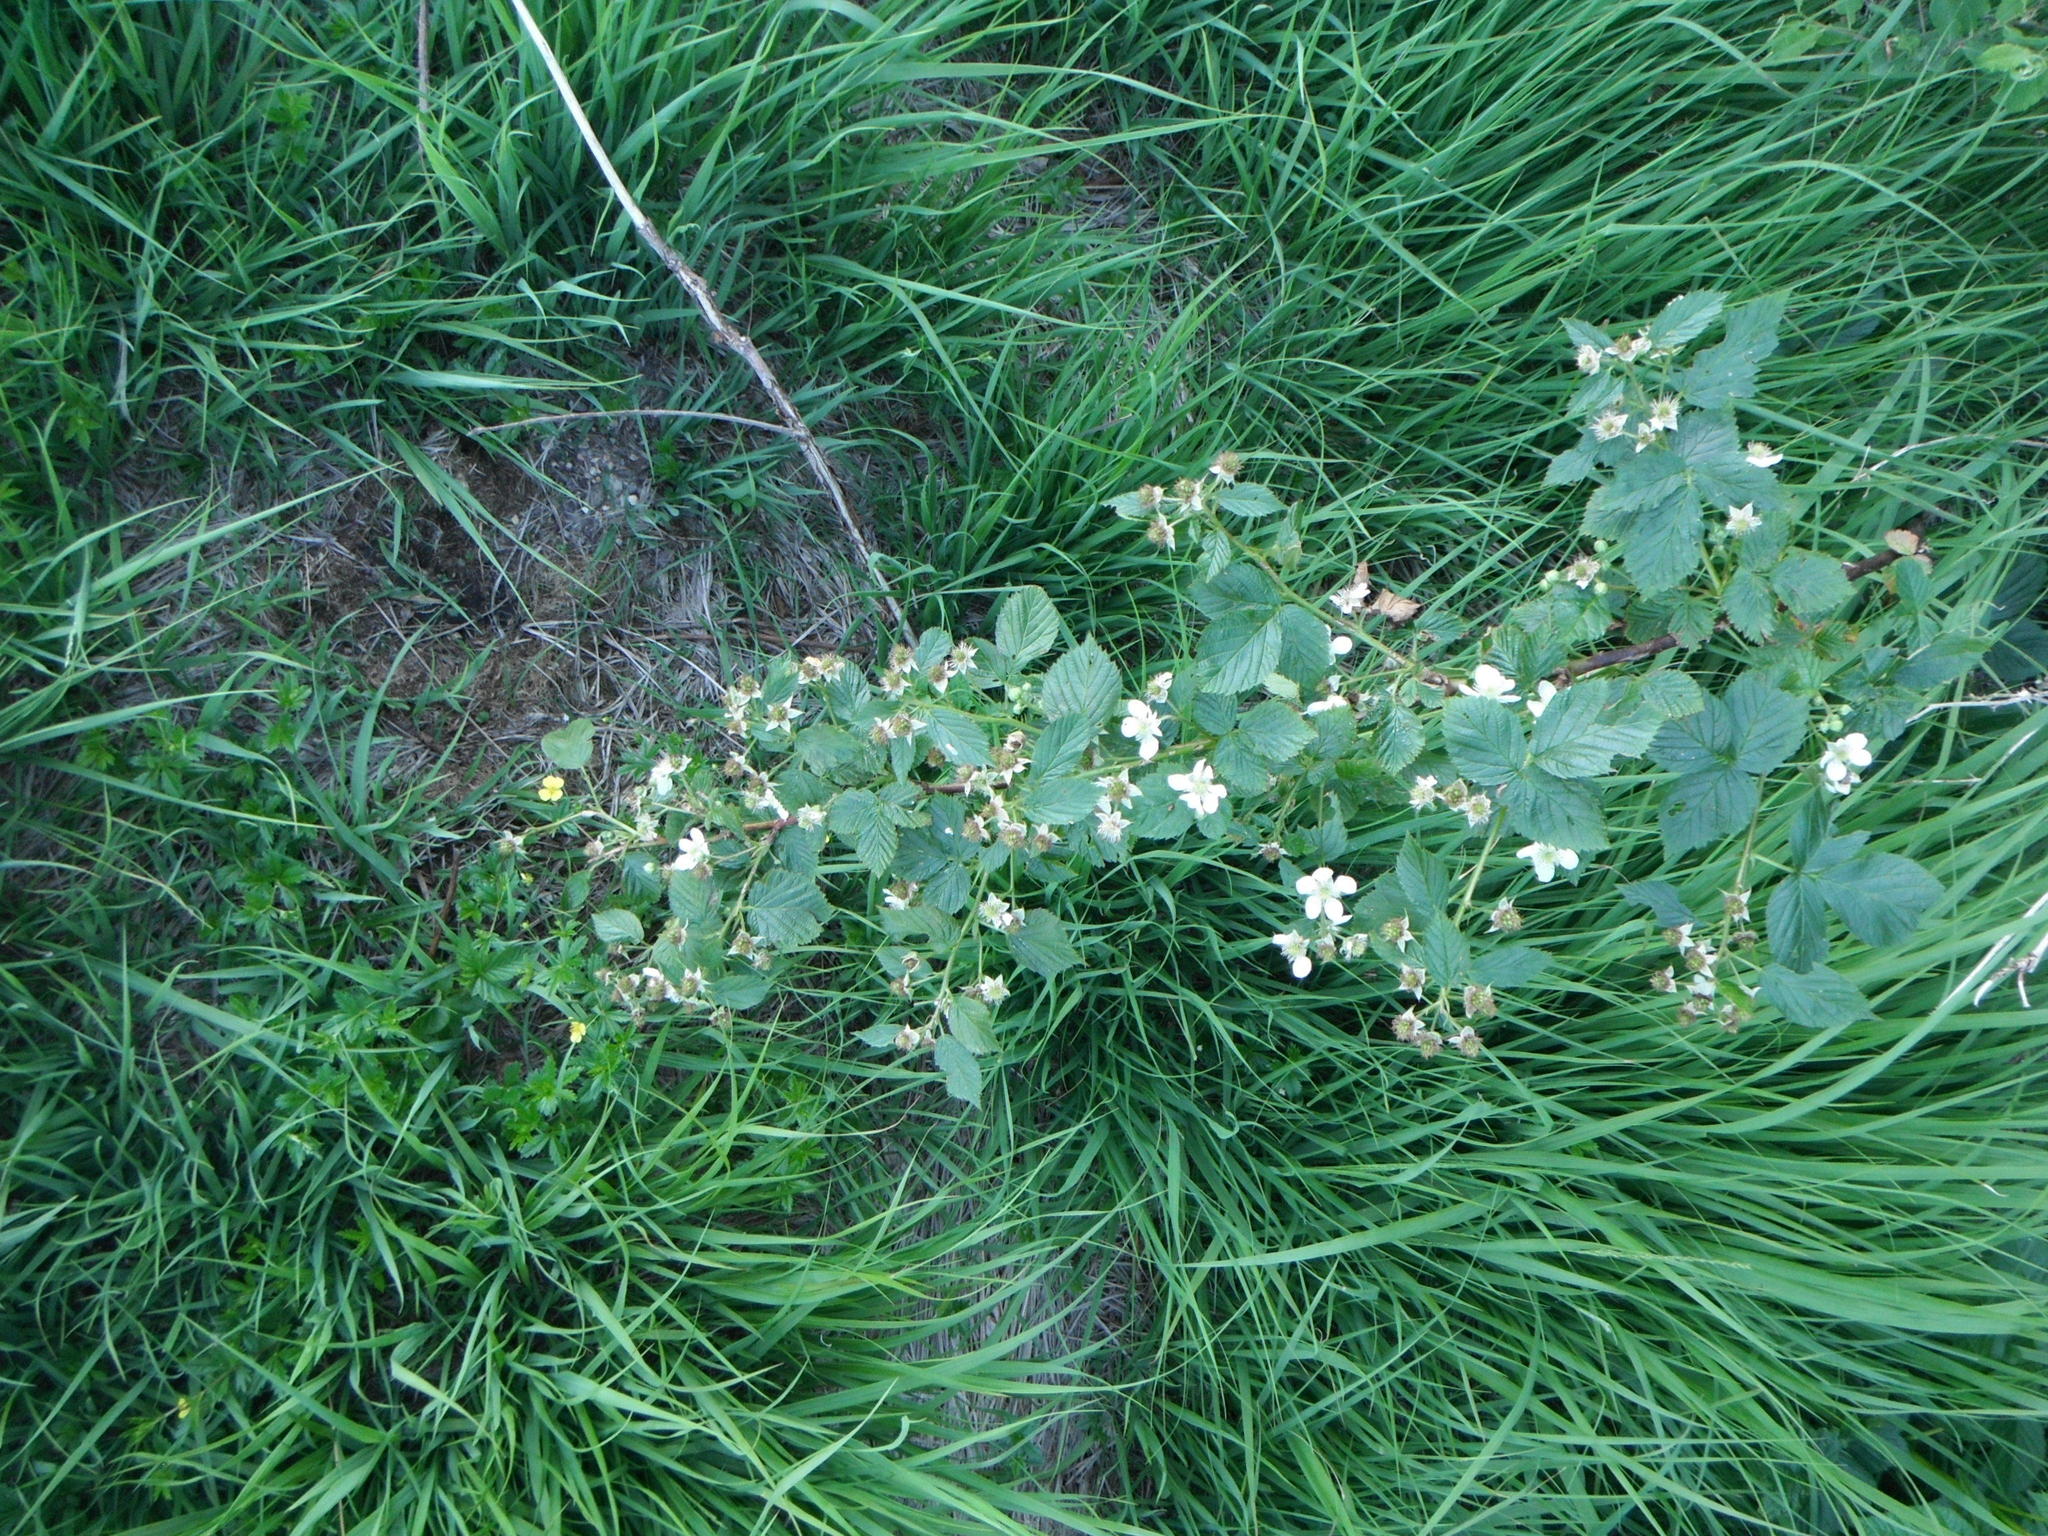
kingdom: Plantae
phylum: Tracheophyta
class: Magnoliopsida
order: Rosales
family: Rosaceae
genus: Rubus
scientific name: Rubus fruticosus
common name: Blackberry, bramble
